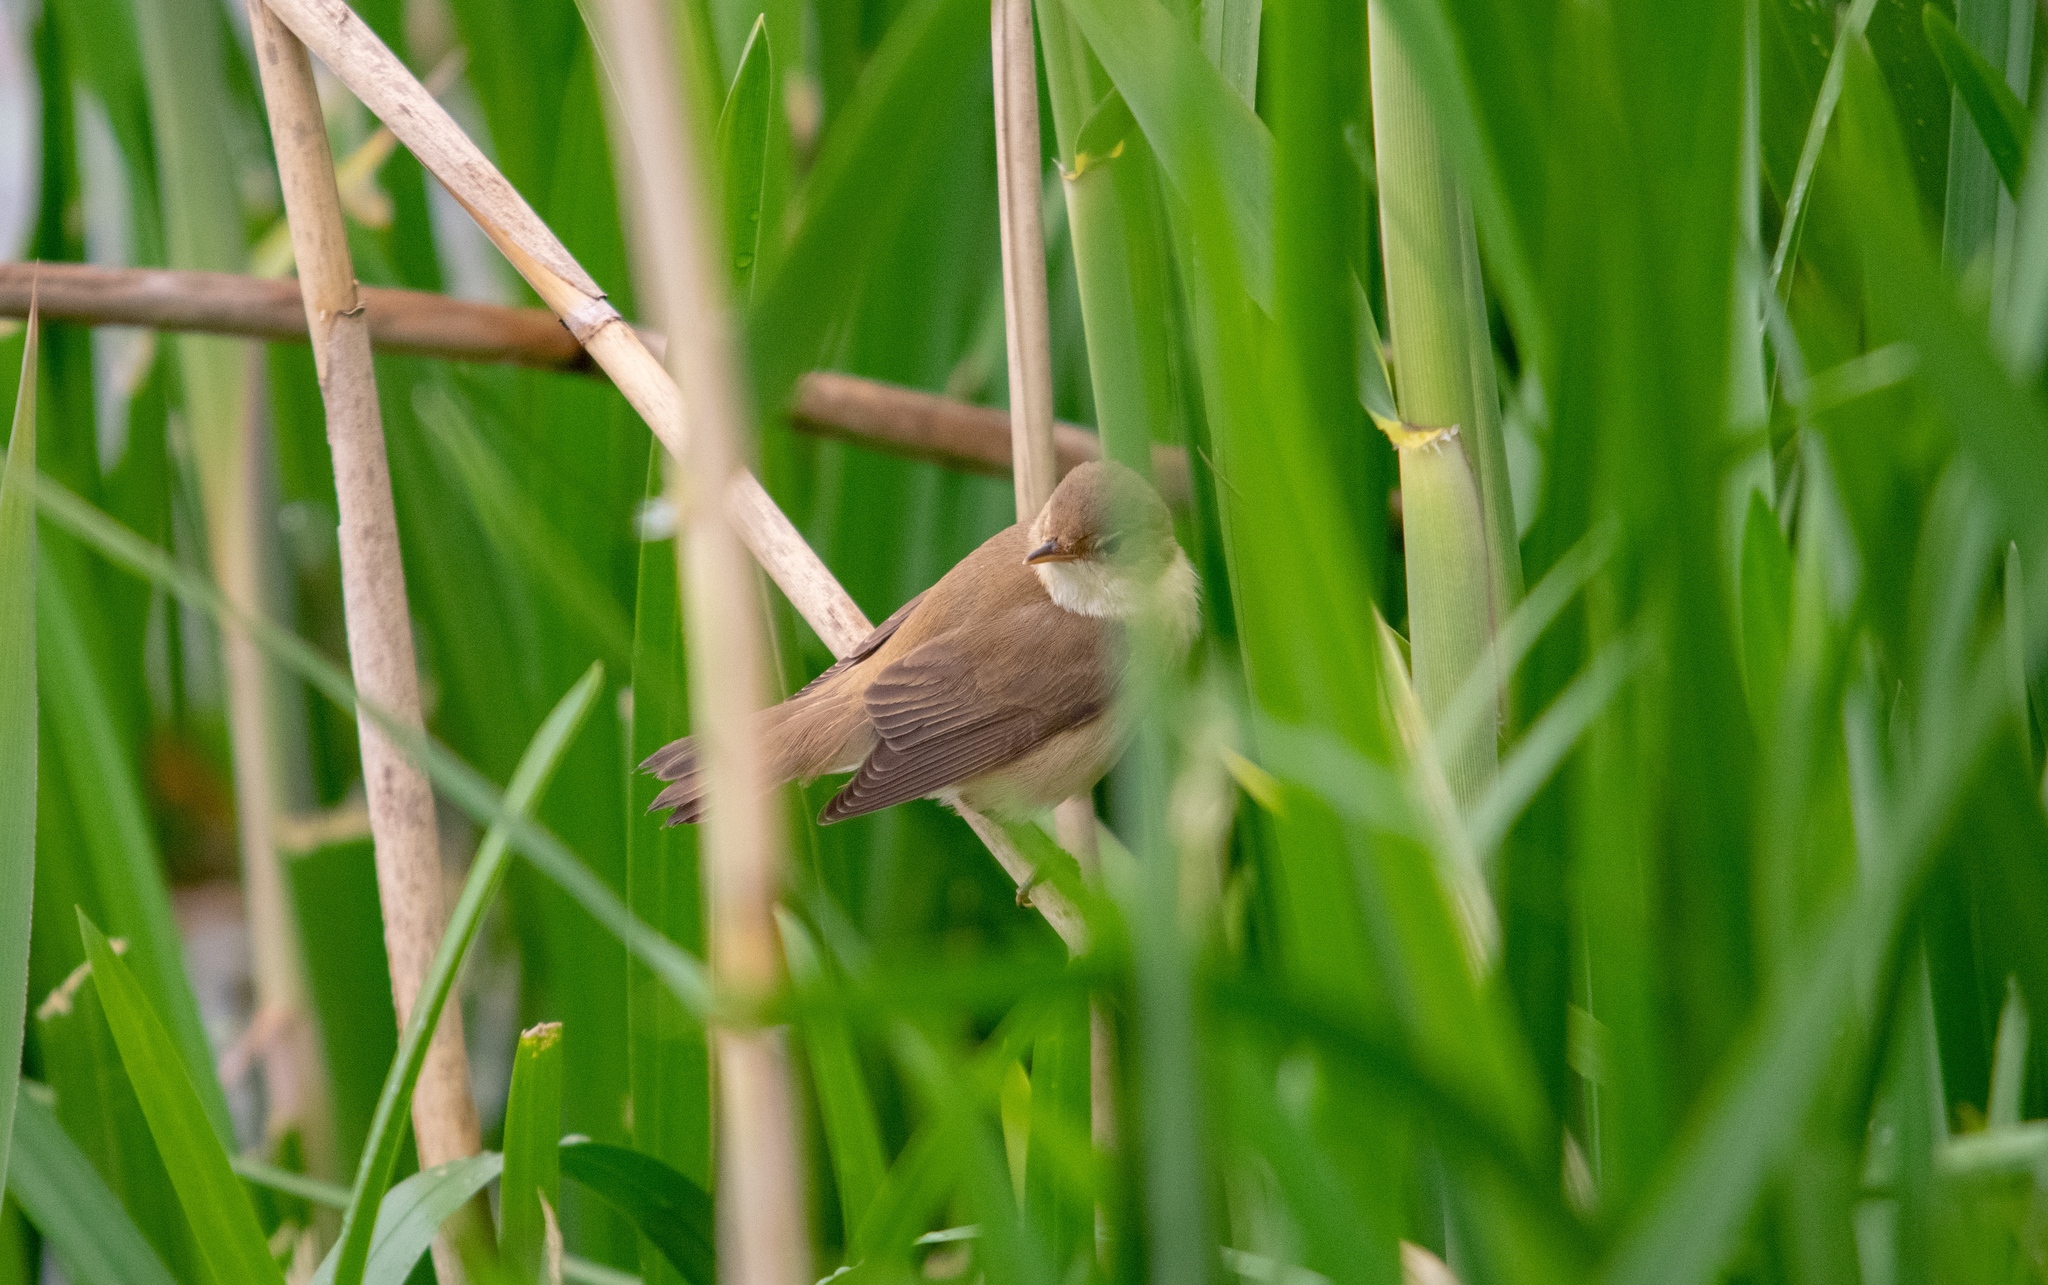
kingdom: Animalia
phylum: Chordata
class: Aves
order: Passeriformes
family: Acrocephalidae
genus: Acrocephalus
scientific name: Acrocephalus scirpaceus
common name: Eurasian reed warbler
